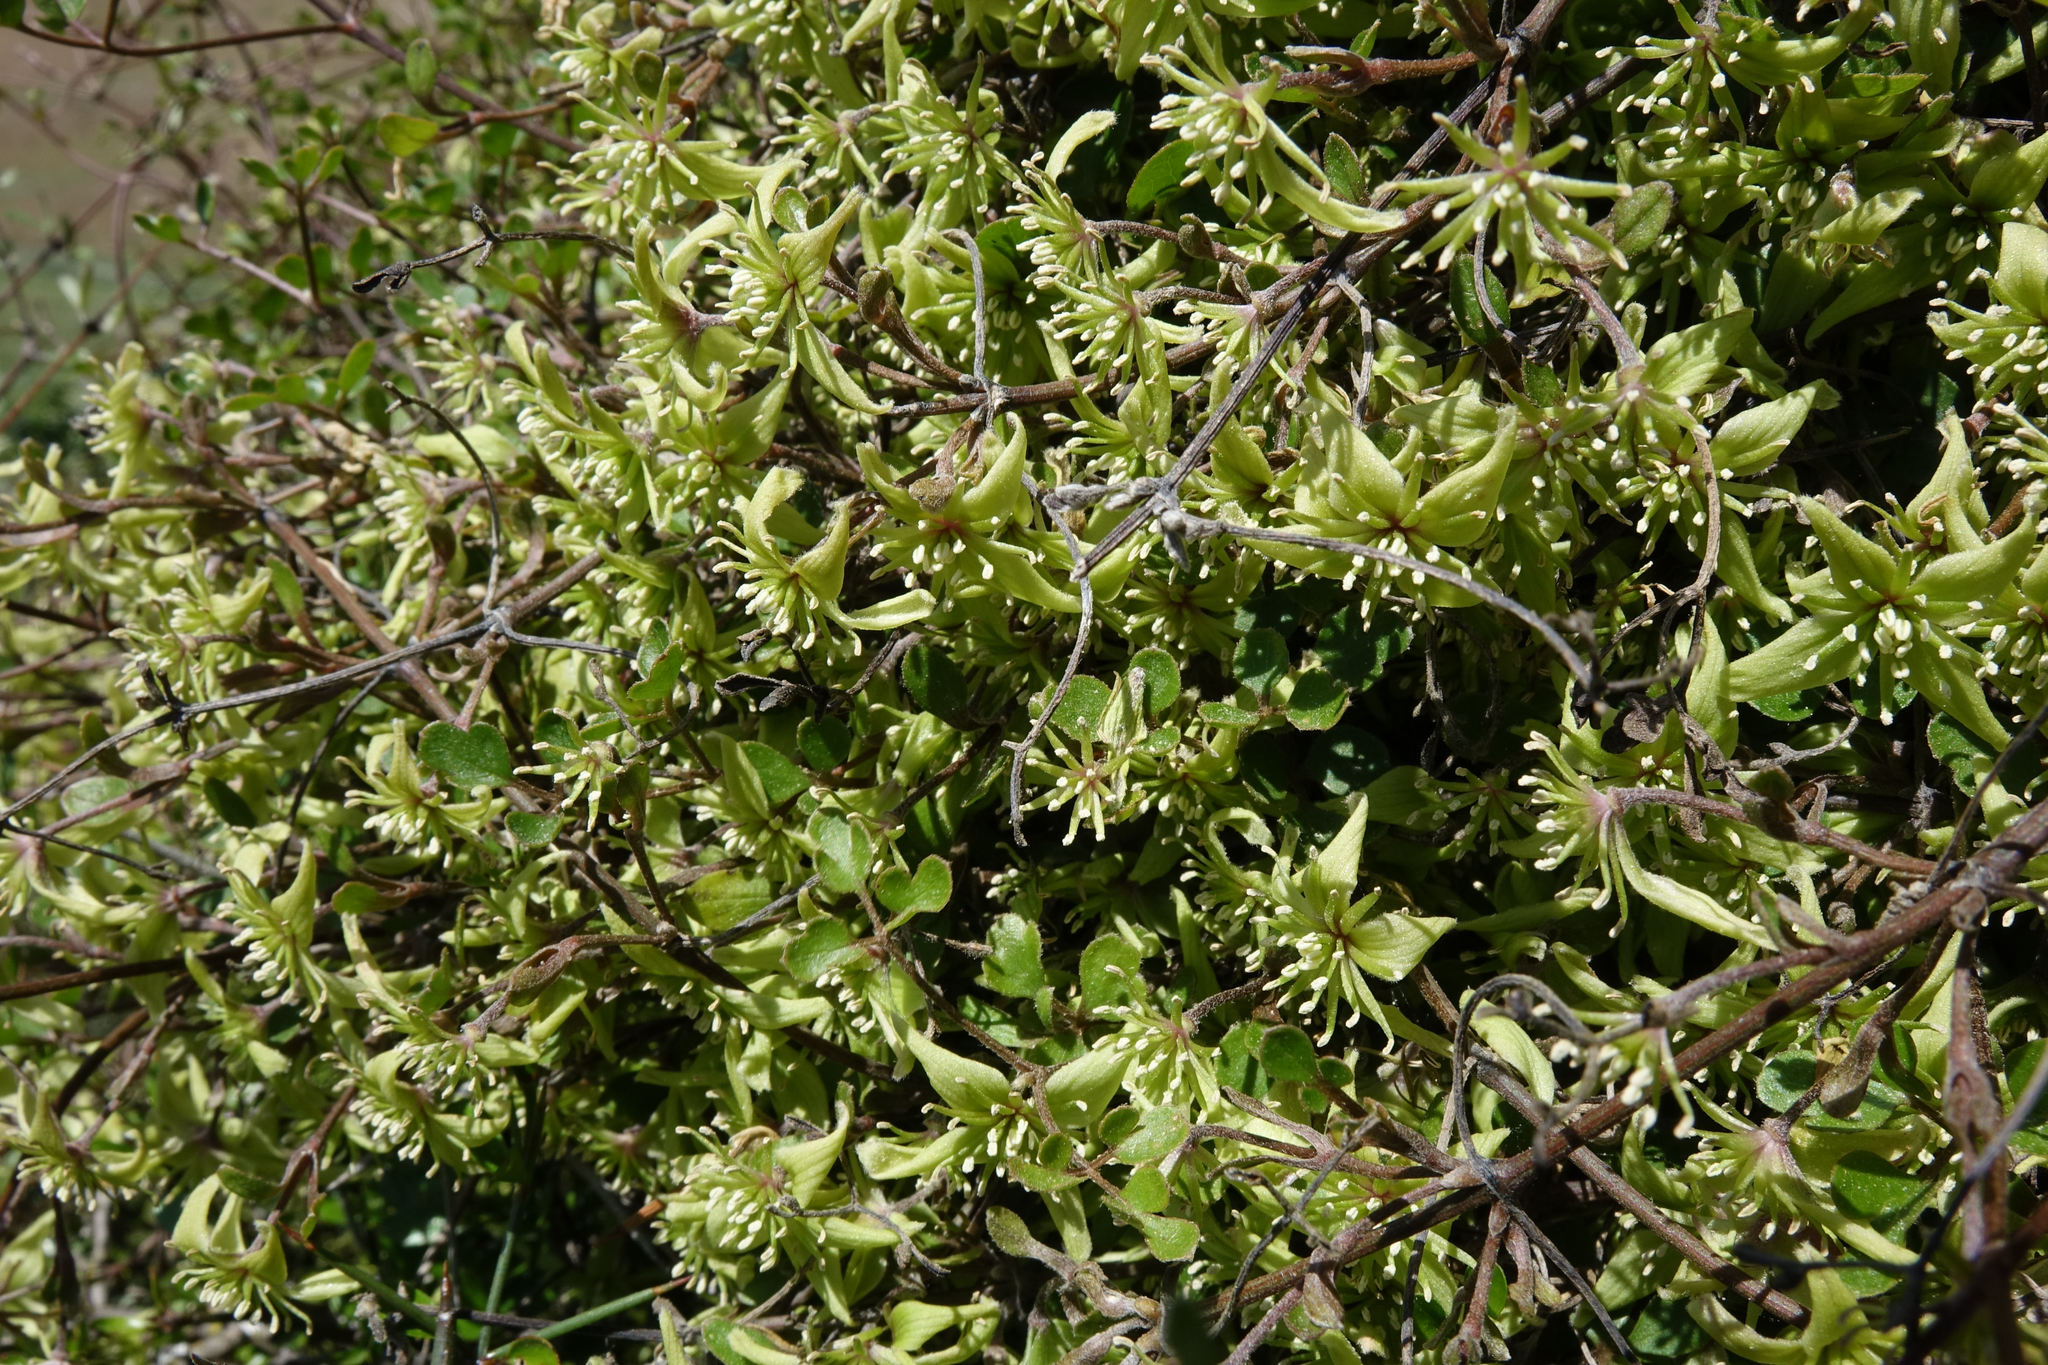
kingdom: Plantae
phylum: Tracheophyta
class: Magnoliopsida
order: Ranunculales
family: Ranunculaceae
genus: Clematis
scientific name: Clematis marata
